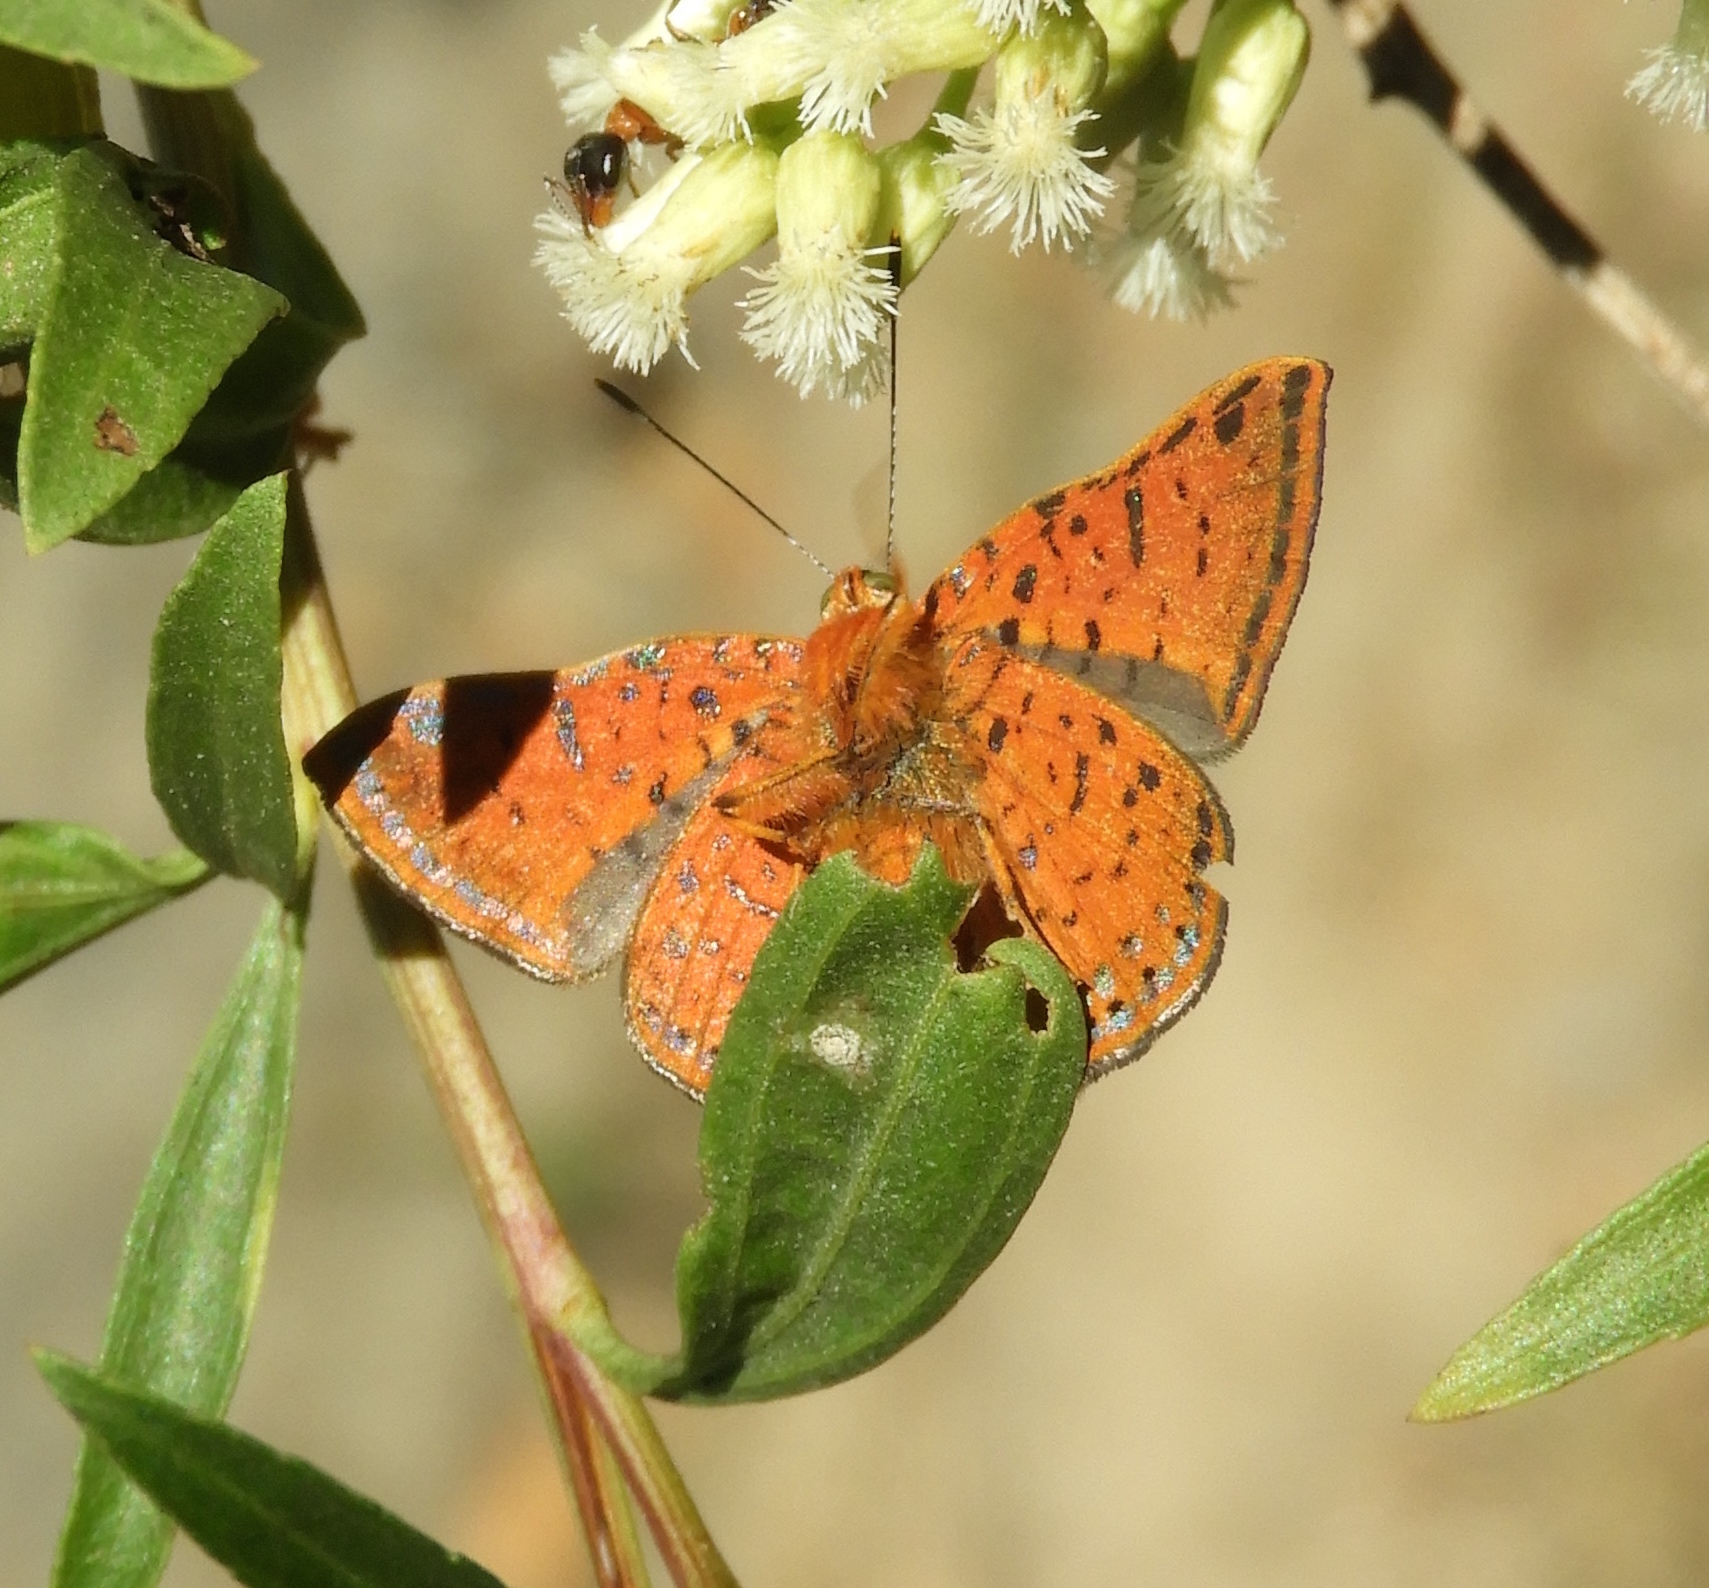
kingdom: Animalia
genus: Caria
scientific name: Caria ino
